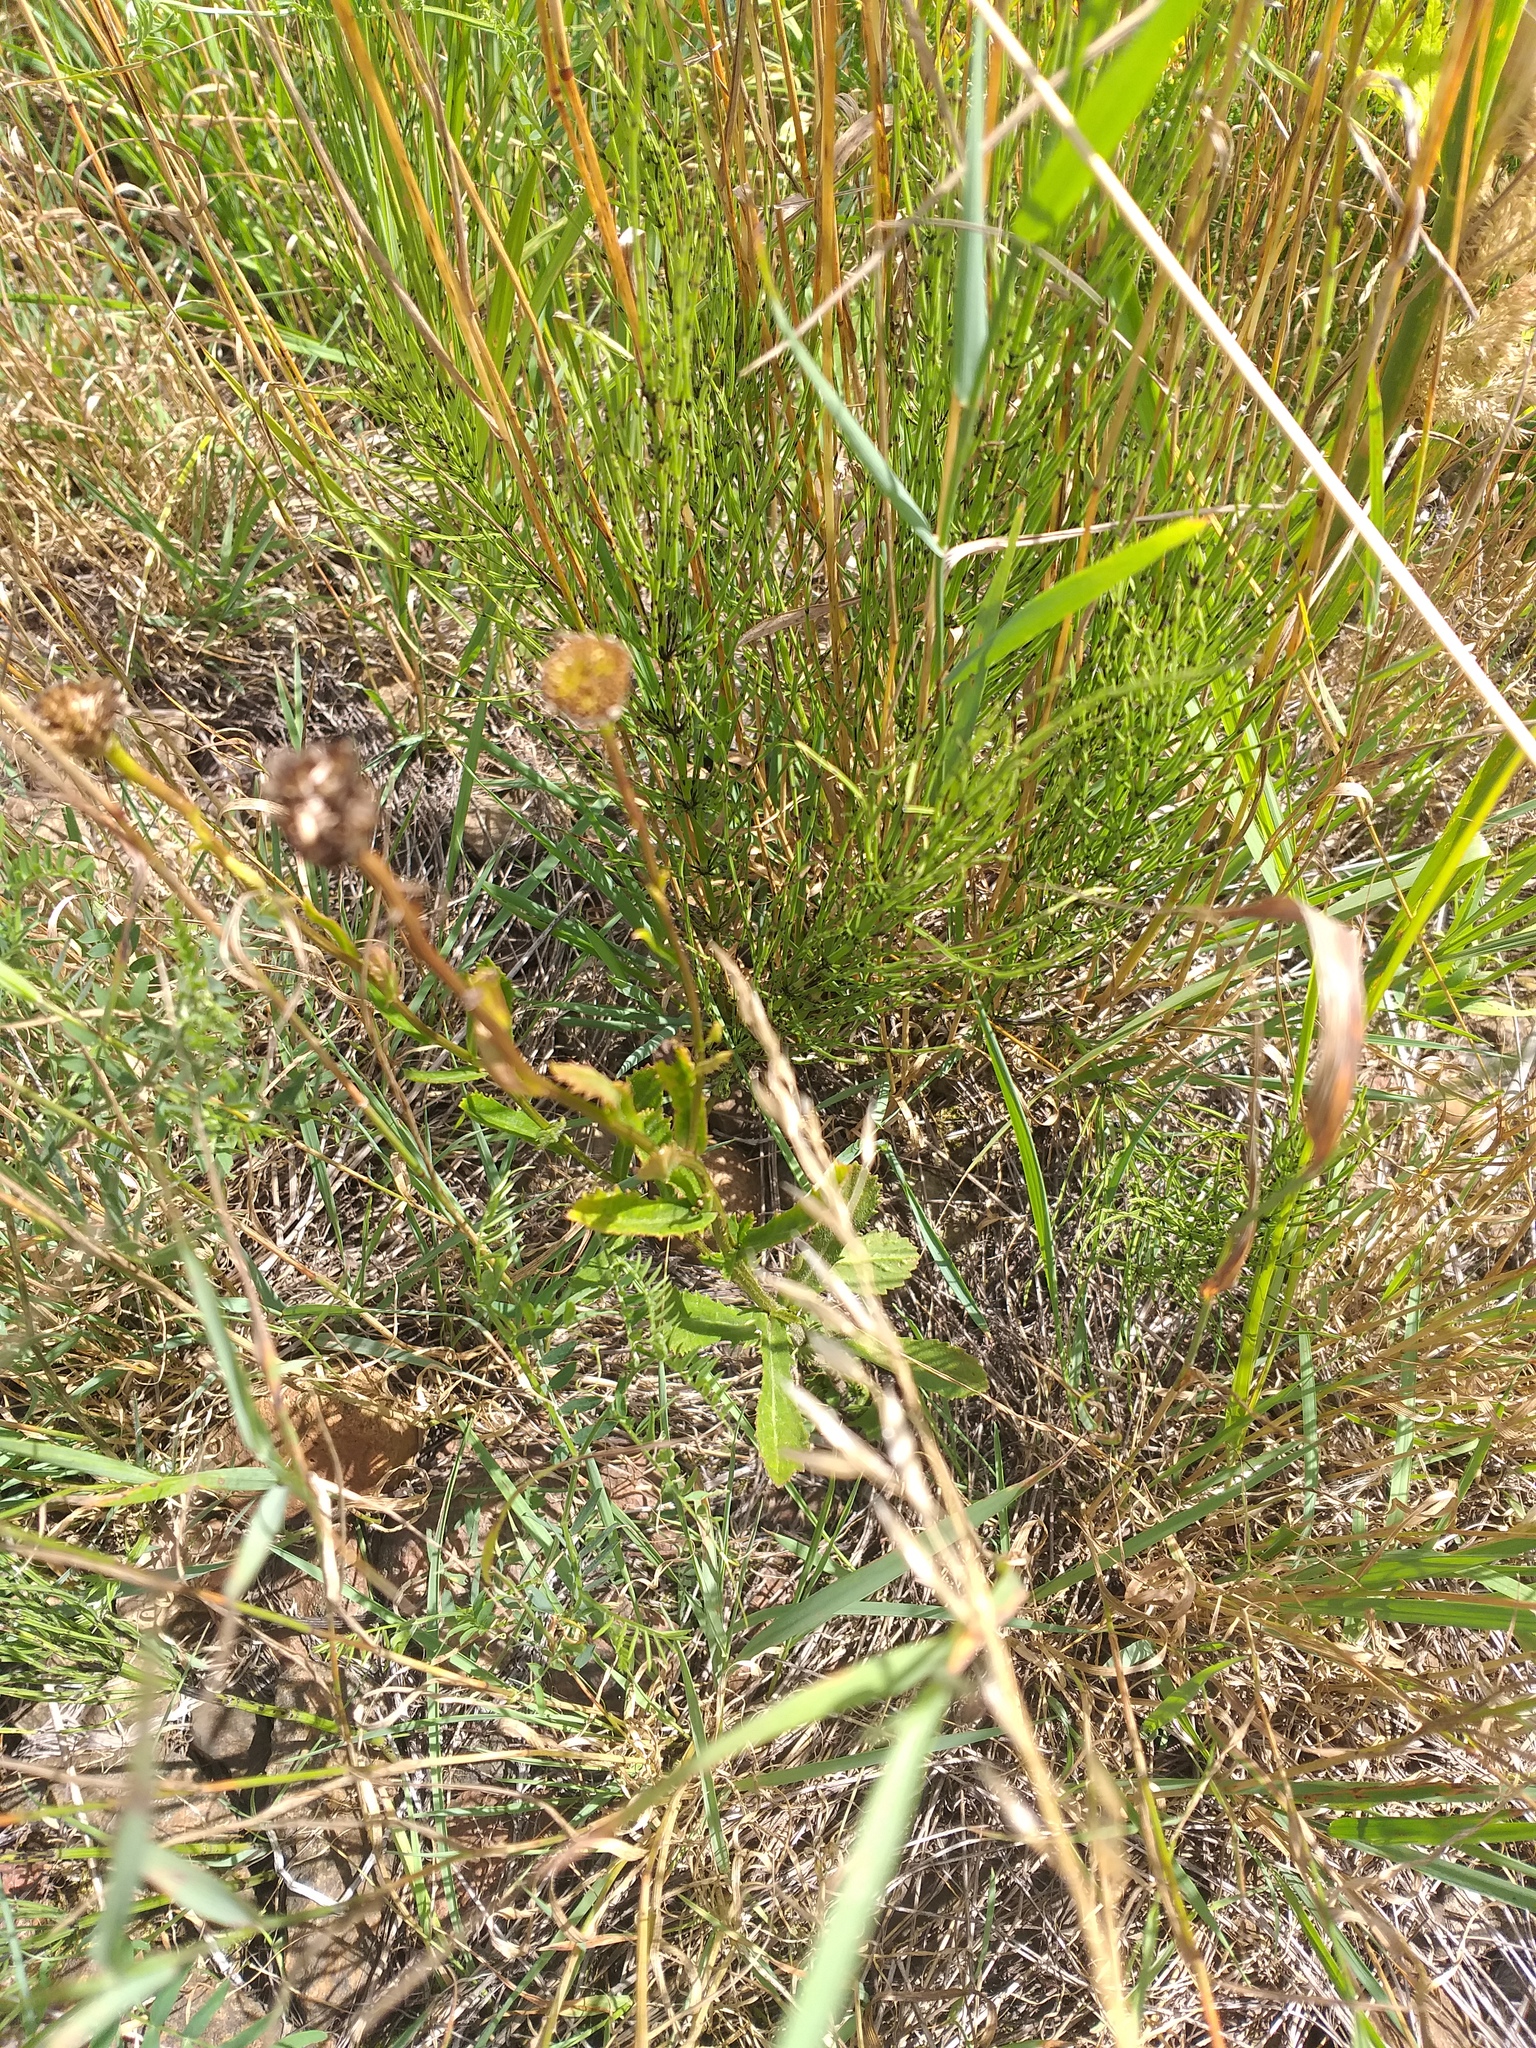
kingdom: Plantae
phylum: Tracheophyta
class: Magnoliopsida
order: Asterales
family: Asteraceae
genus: Leucanthemum
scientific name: Leucanthemum vulgare
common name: Oxeye daisy
